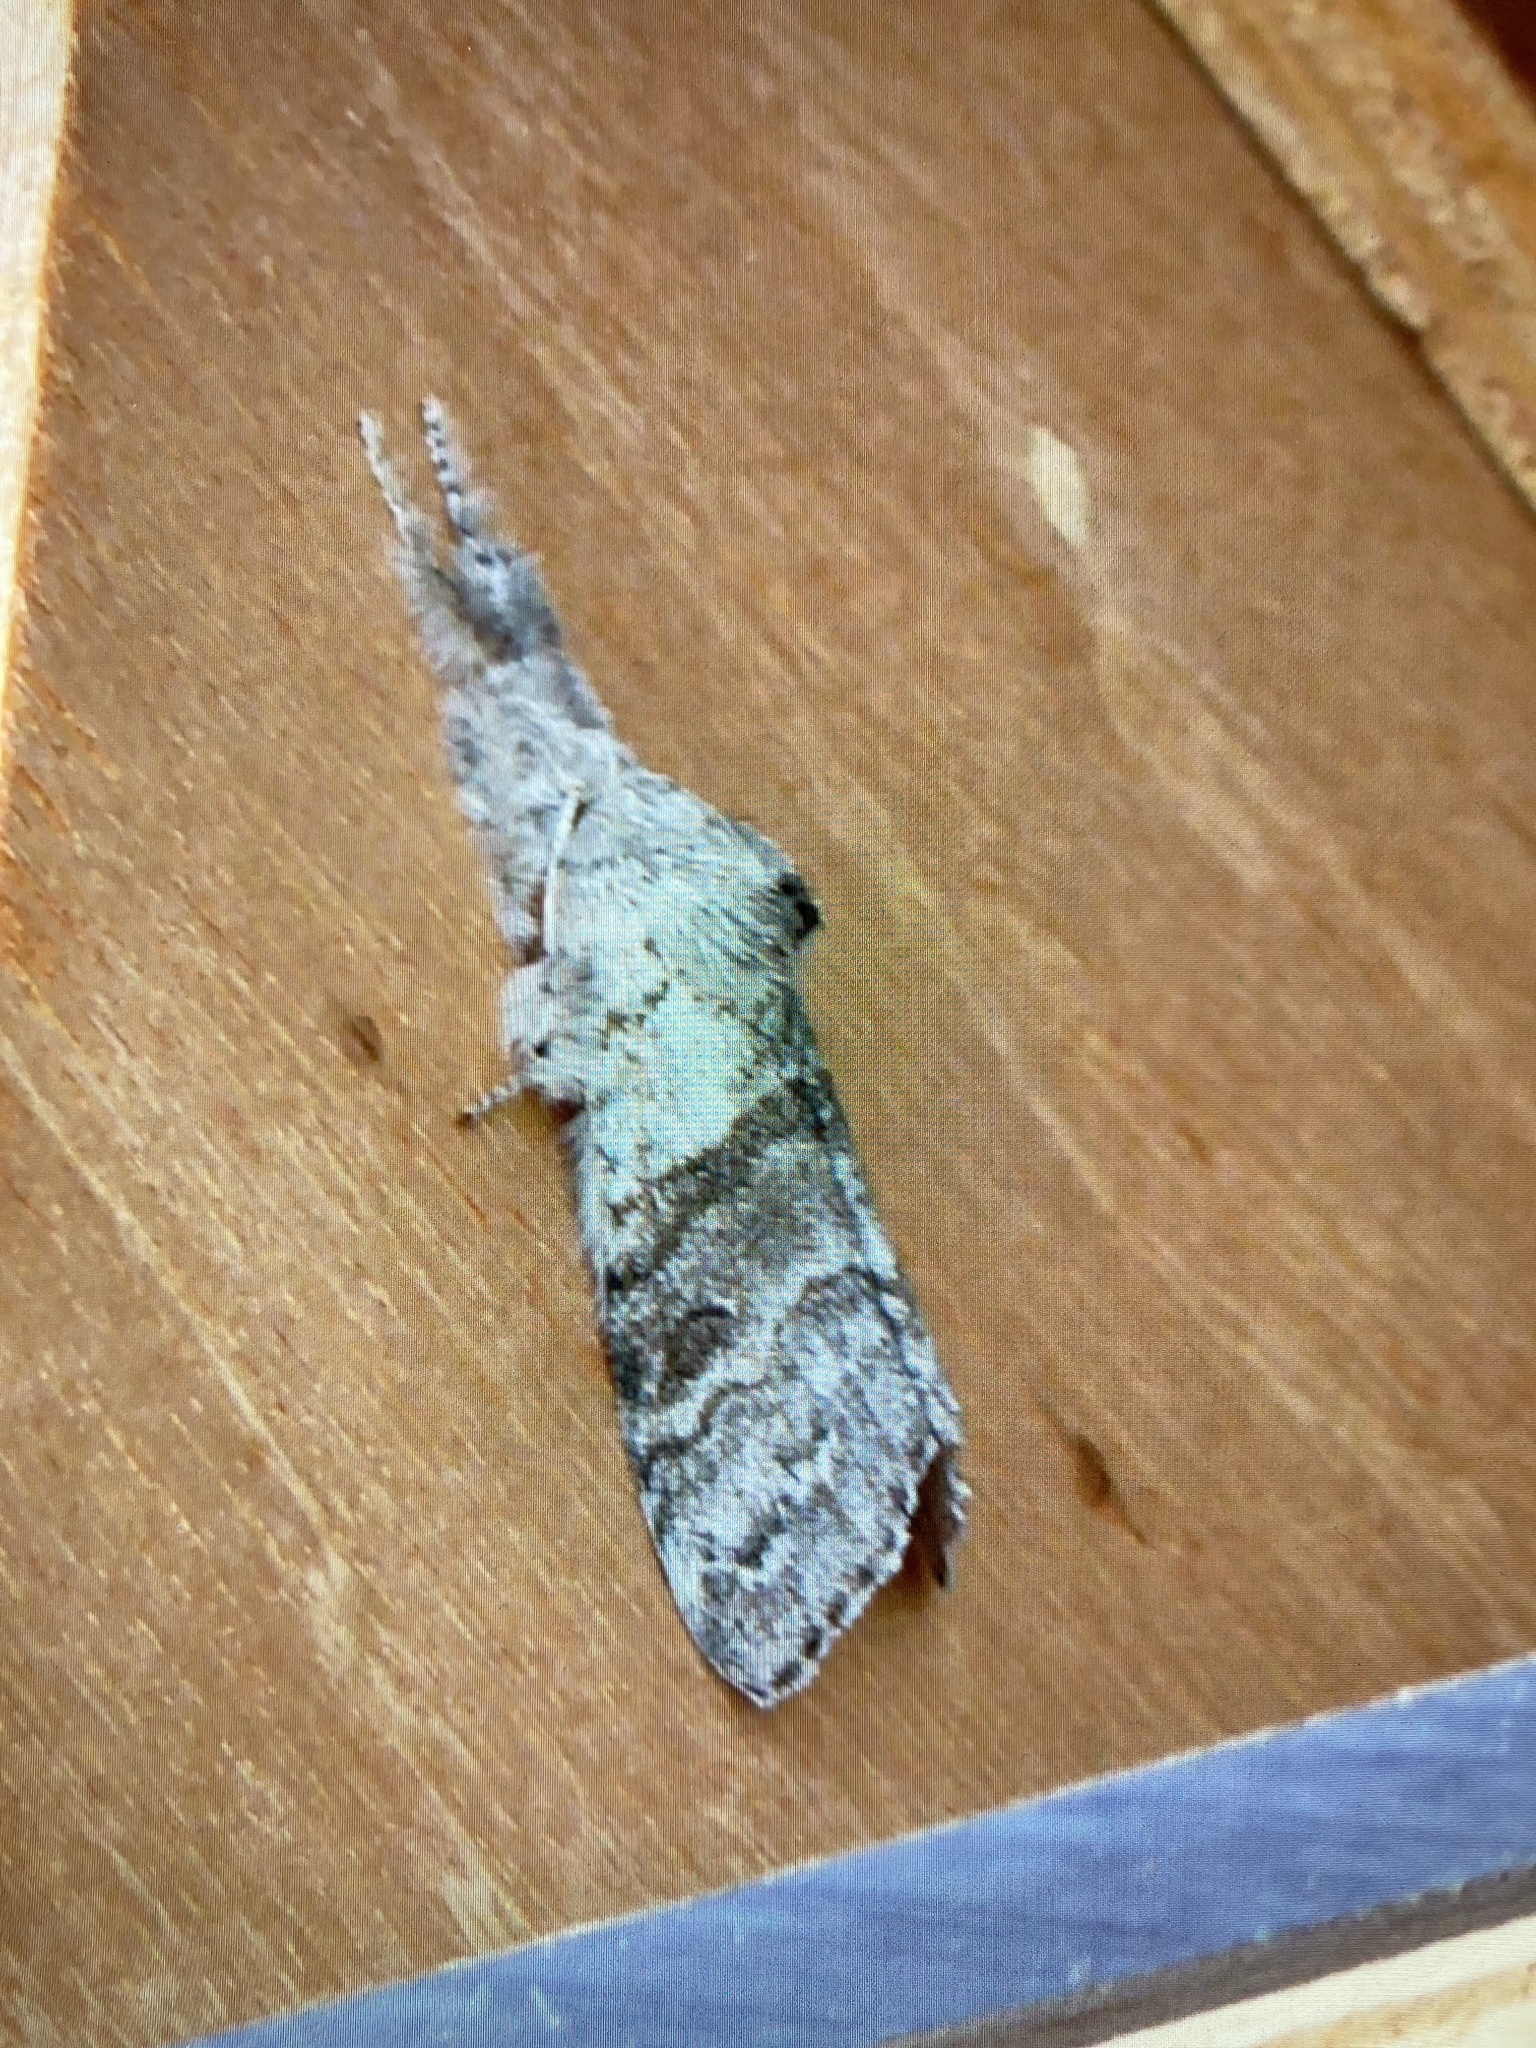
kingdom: Animalia
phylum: Arthropoda
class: Insecta
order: Lepidoptera
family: Erebidae
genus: Calliteara
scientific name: Calliteara pudibunda
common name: Pale tussock
